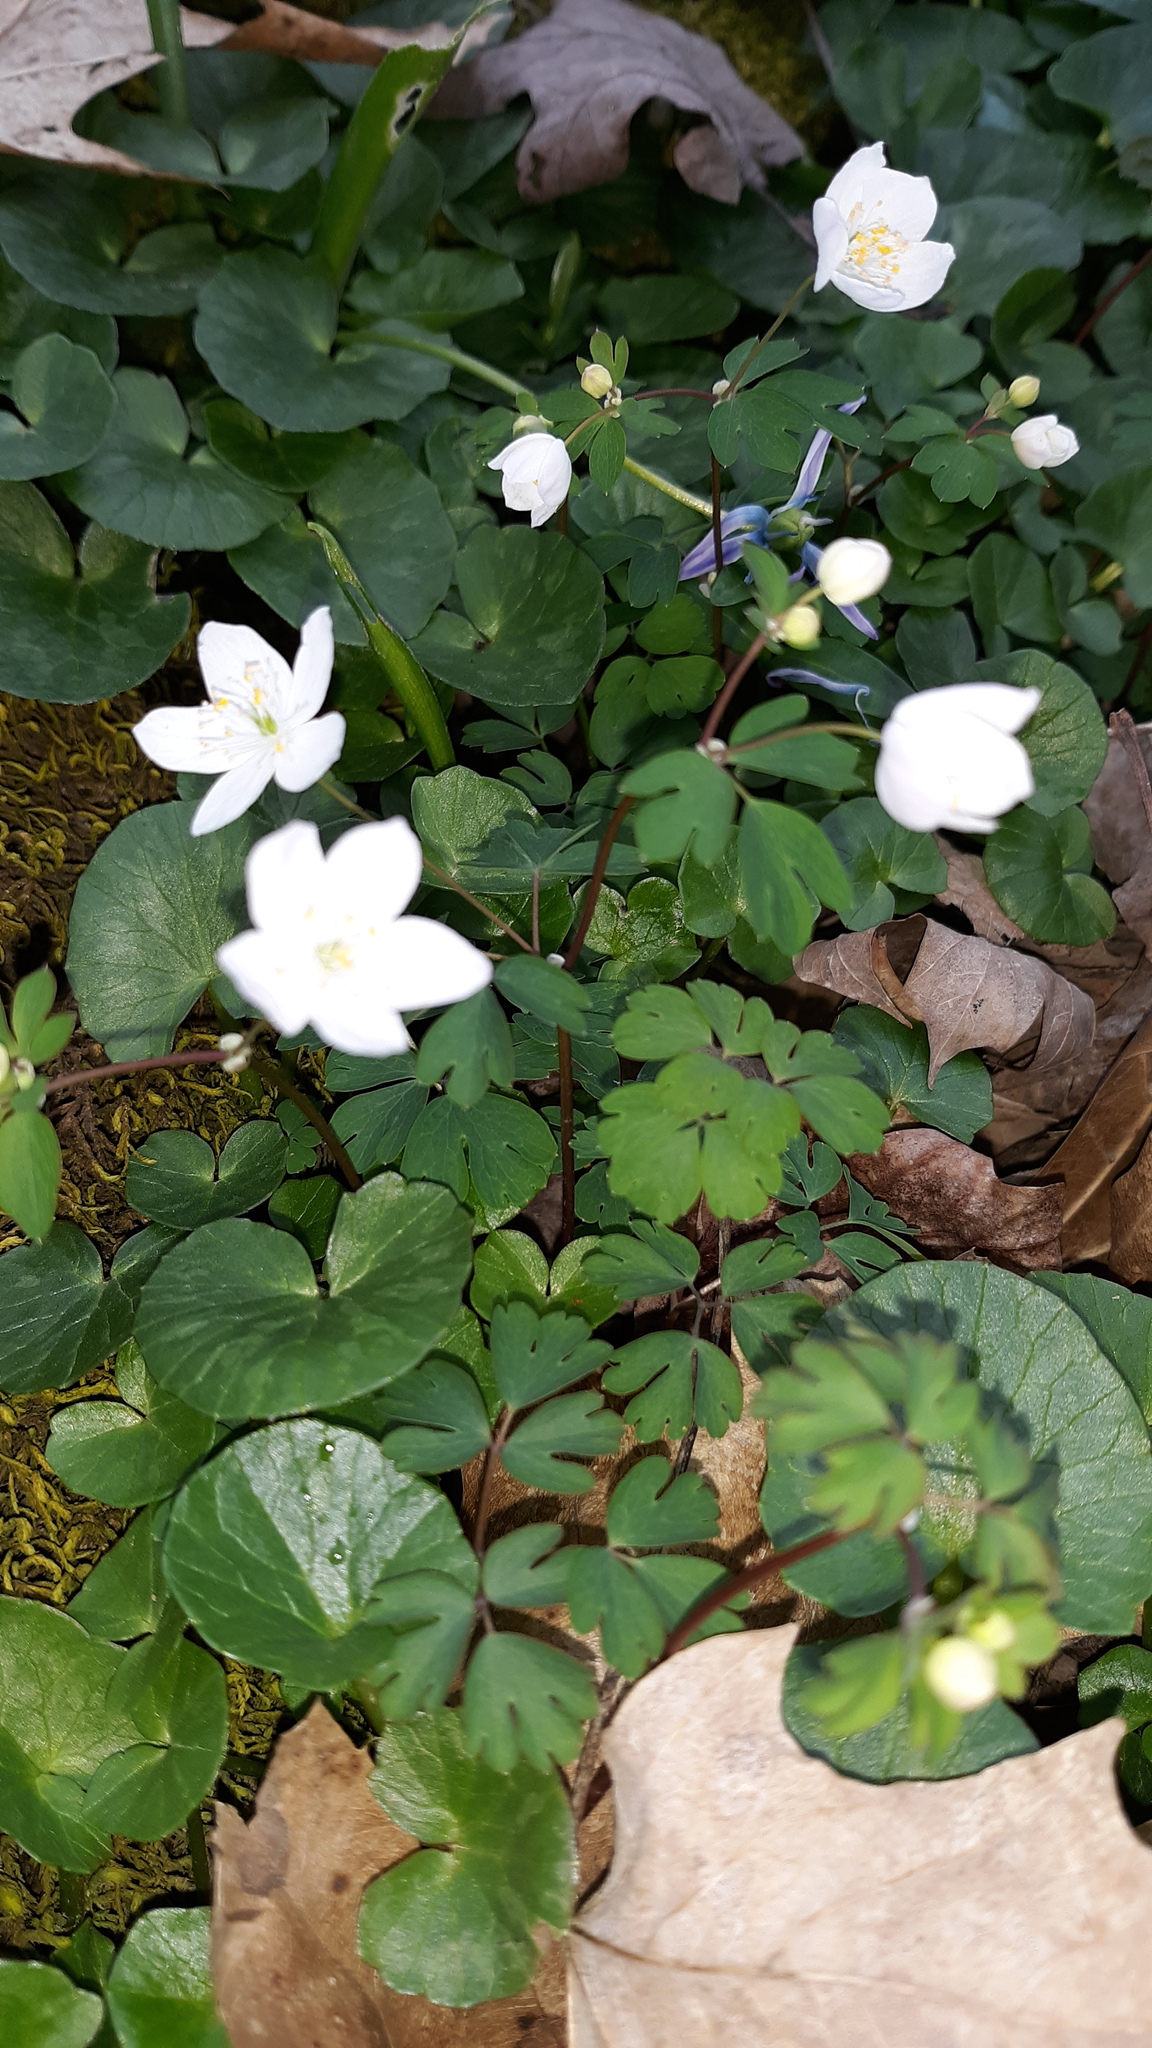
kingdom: Plantae
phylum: Tracheophyta
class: Magnoliopsida
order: Ranunculales
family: Ranunculaceae
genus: Enemion
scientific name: Enemion biternatum
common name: Eastern false rue-anemone
